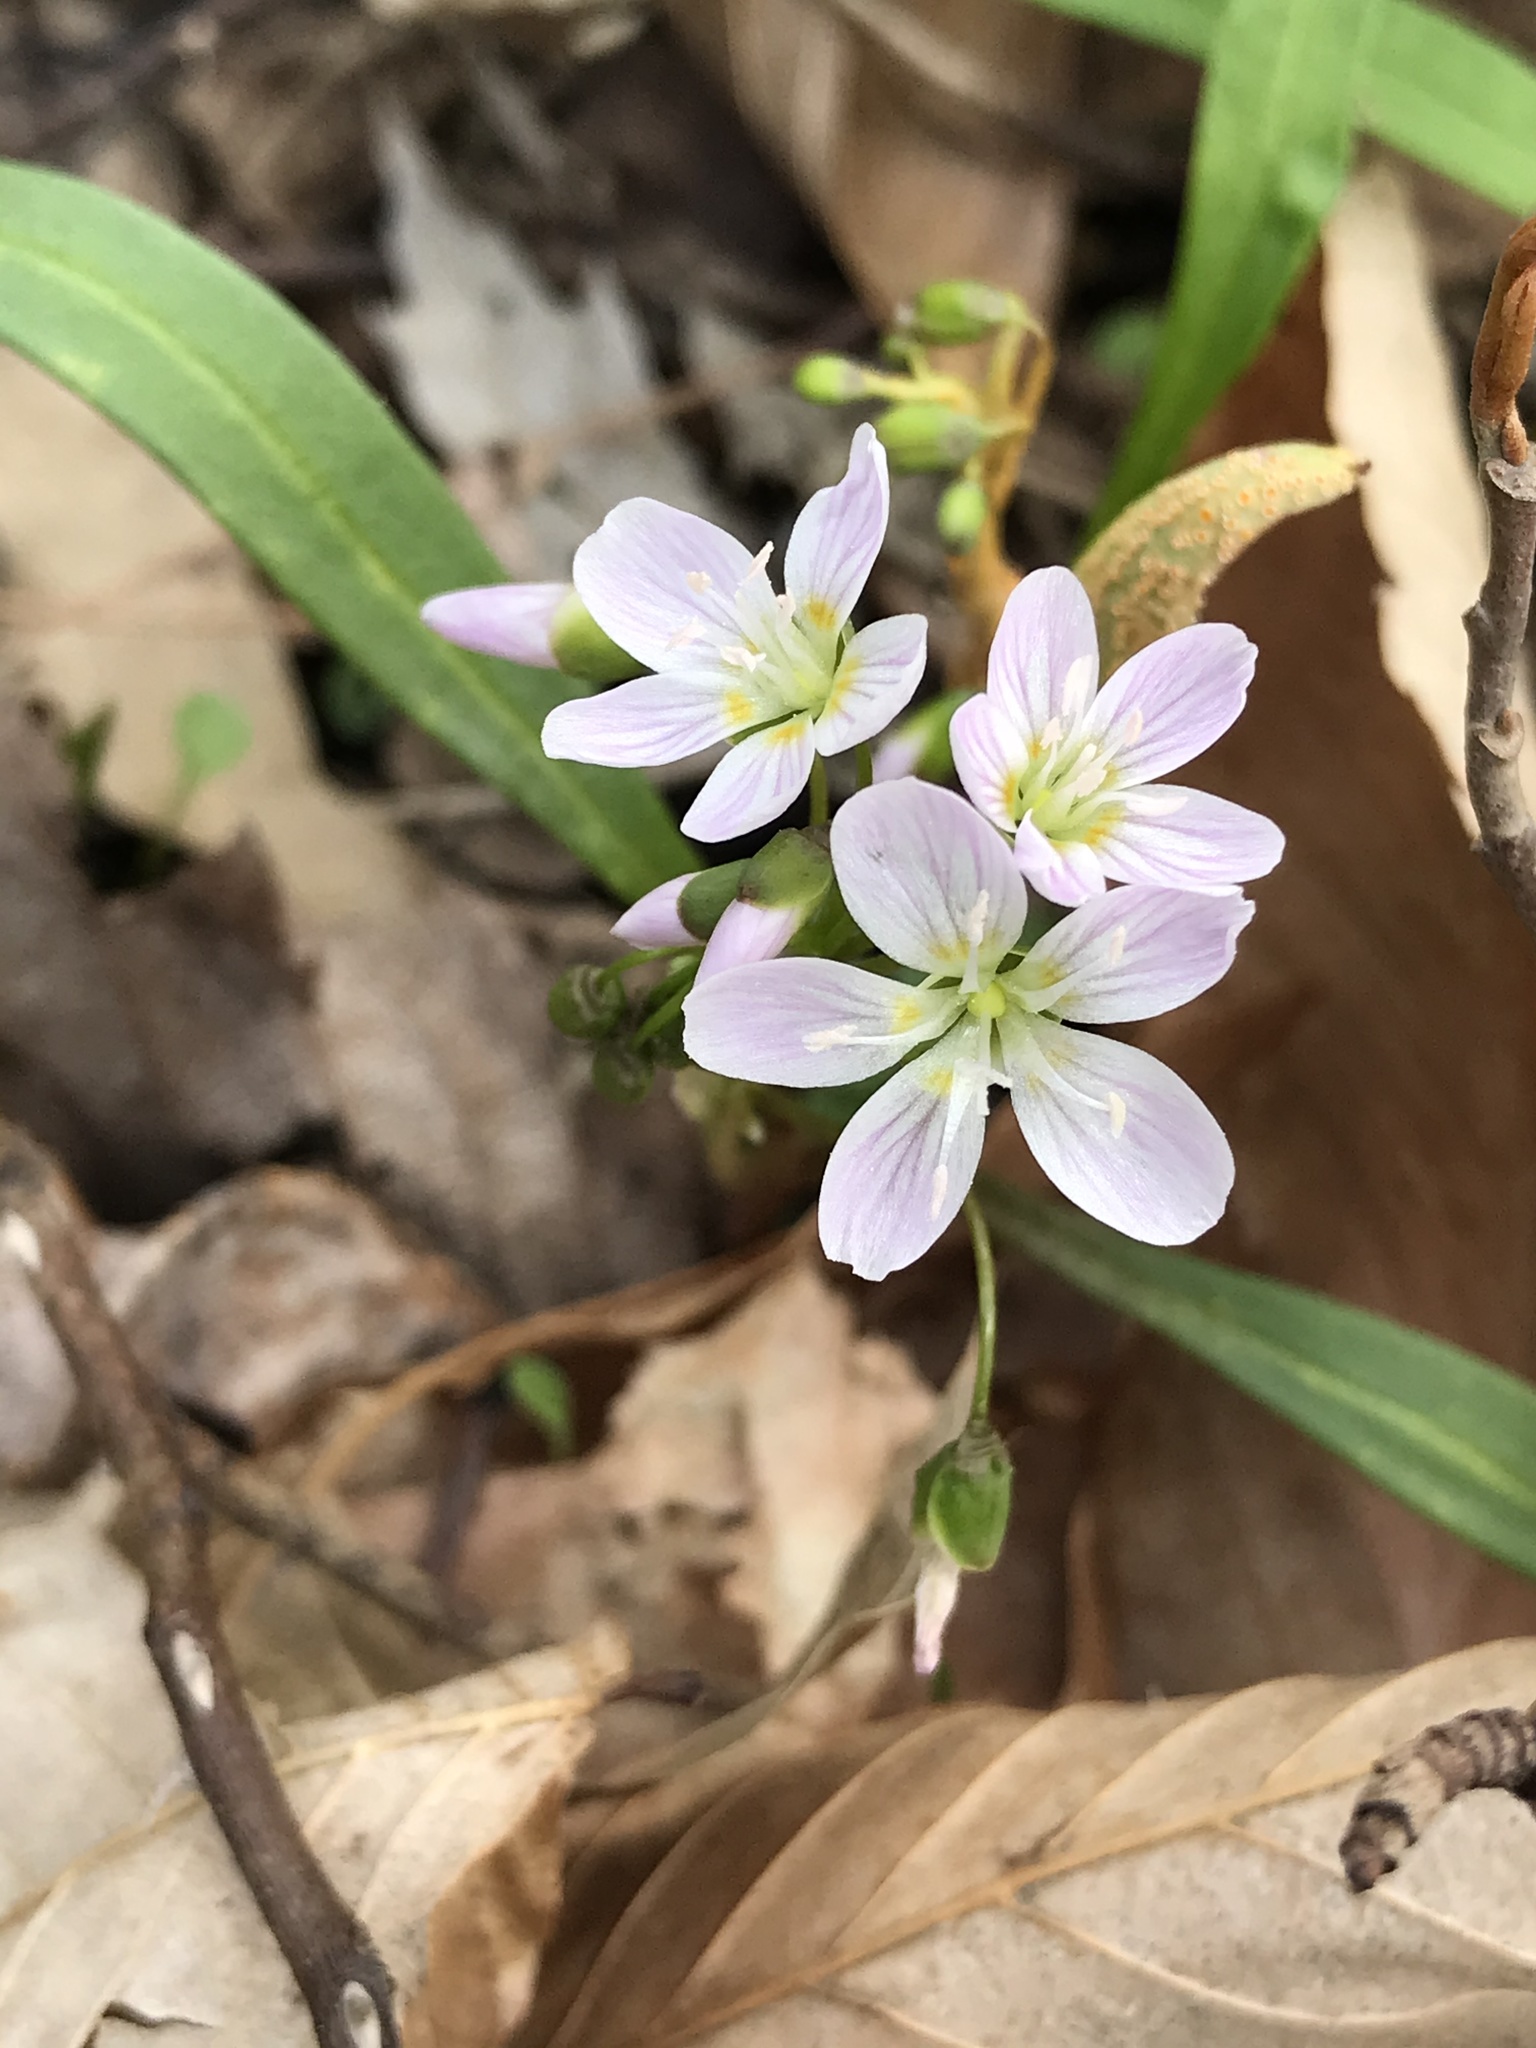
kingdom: Plantae
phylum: Tracheophyta
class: Magnoliopsida
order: Caryophyllales
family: Montiaceae
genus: Claytonia
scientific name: Claytonia virginica
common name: Virginia springbeauty
